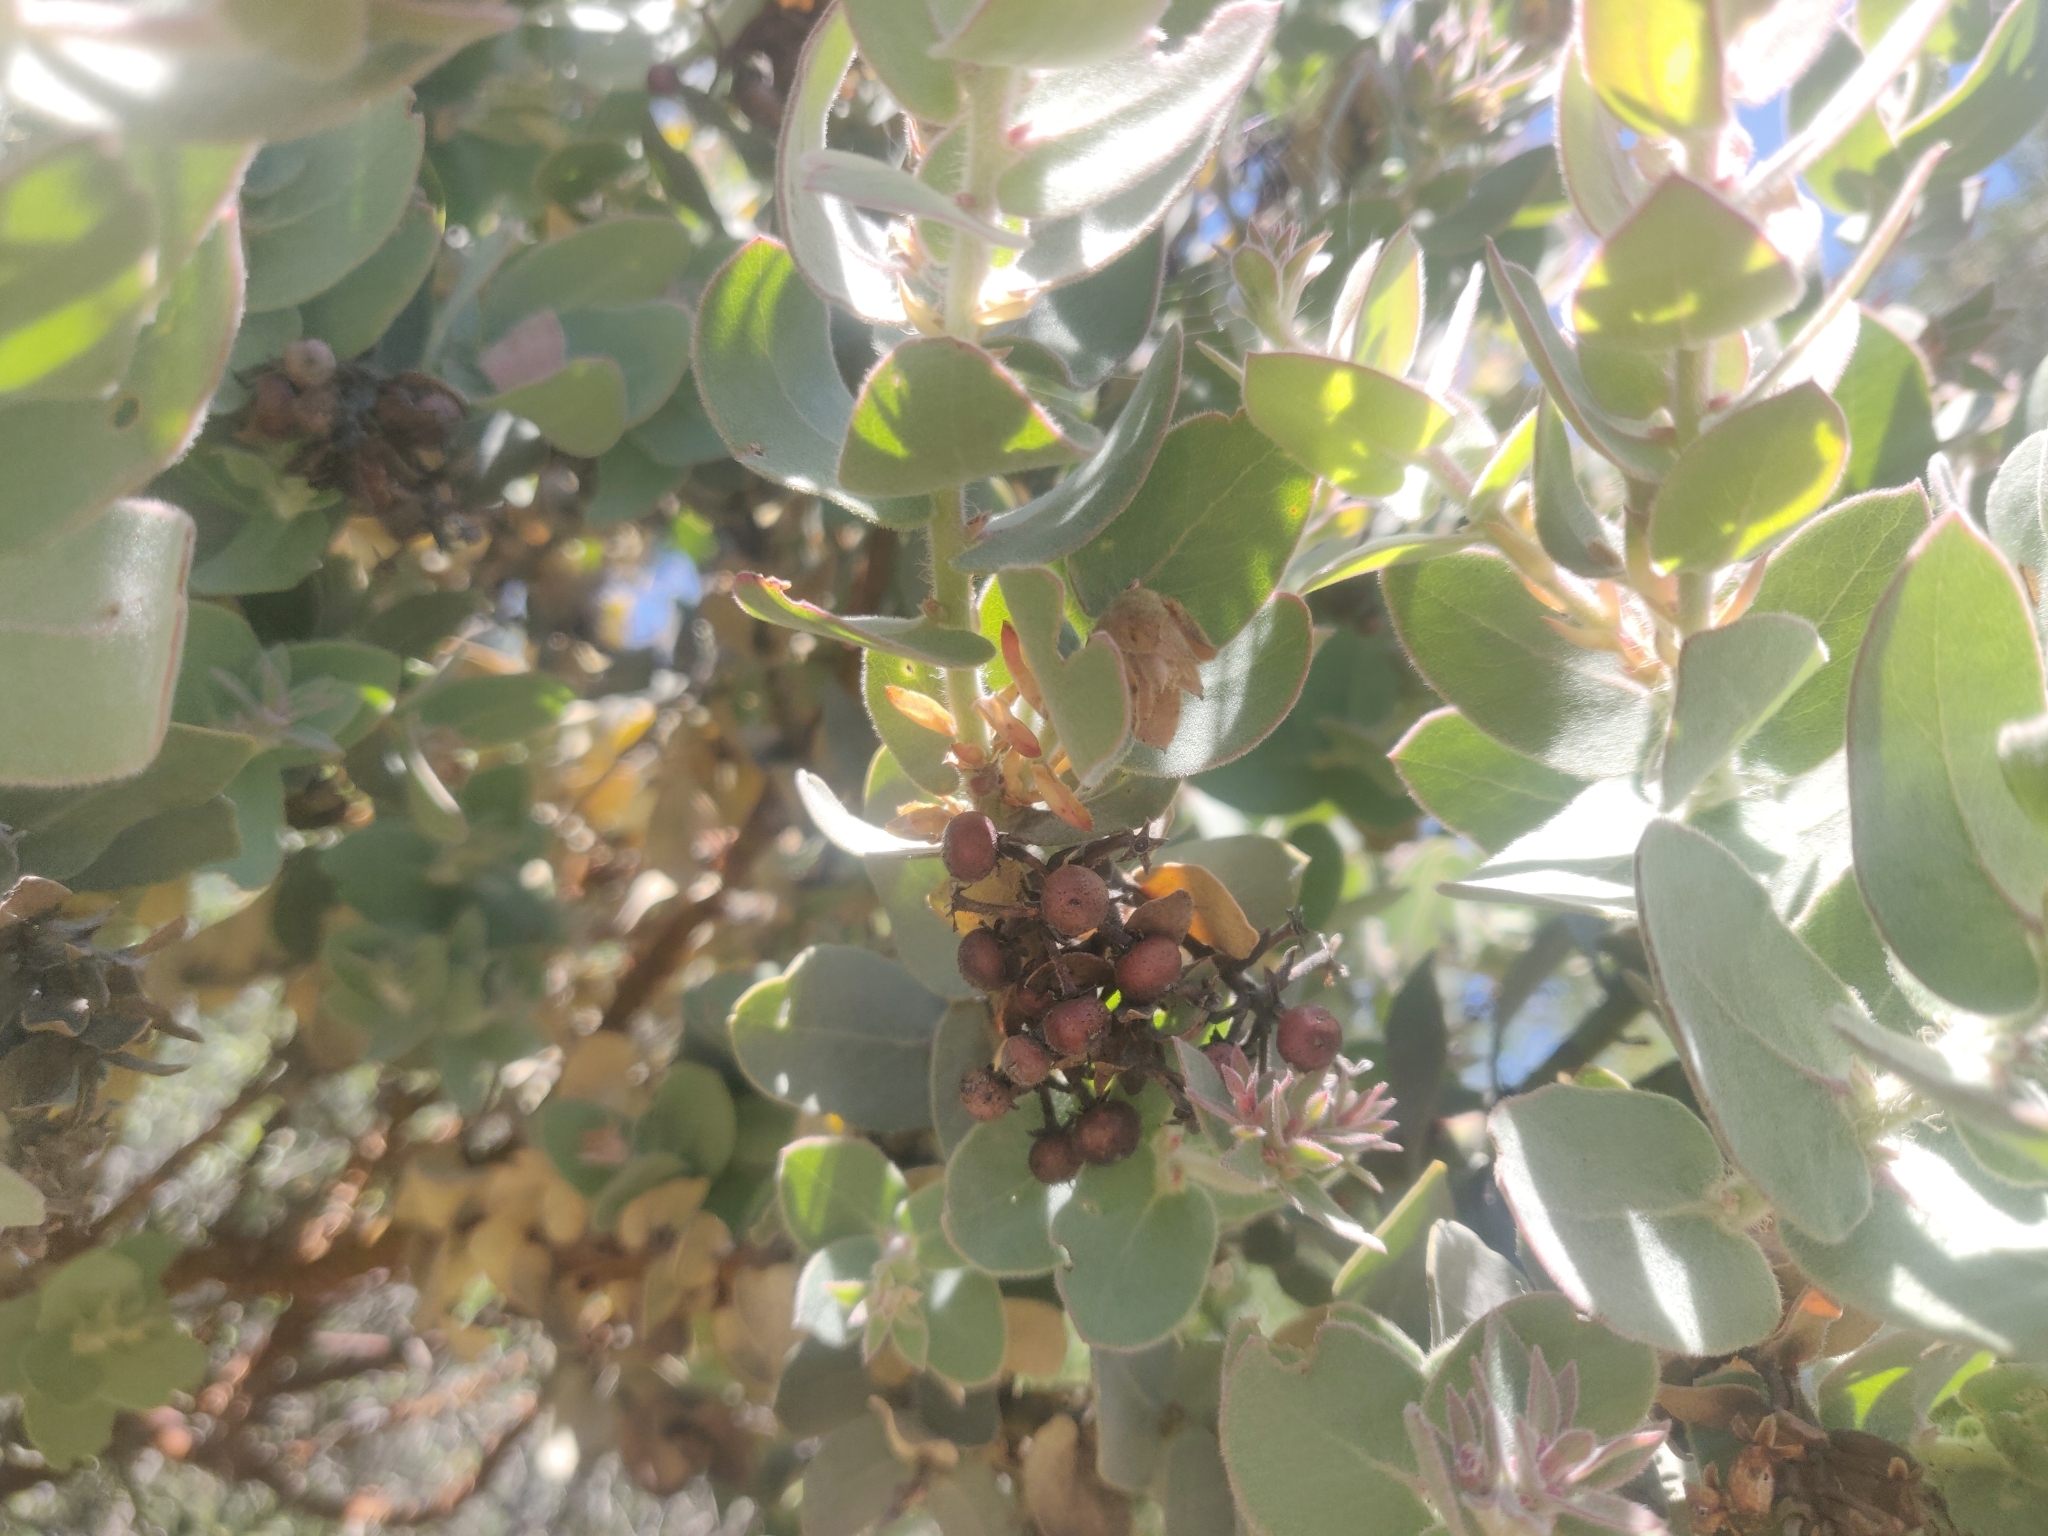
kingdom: Plantae
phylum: Tracheophyta
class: Magnoliopsida
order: Ericales
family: Ericaceae
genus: Arctostaphylos
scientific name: Arctostaphylos auriculata
